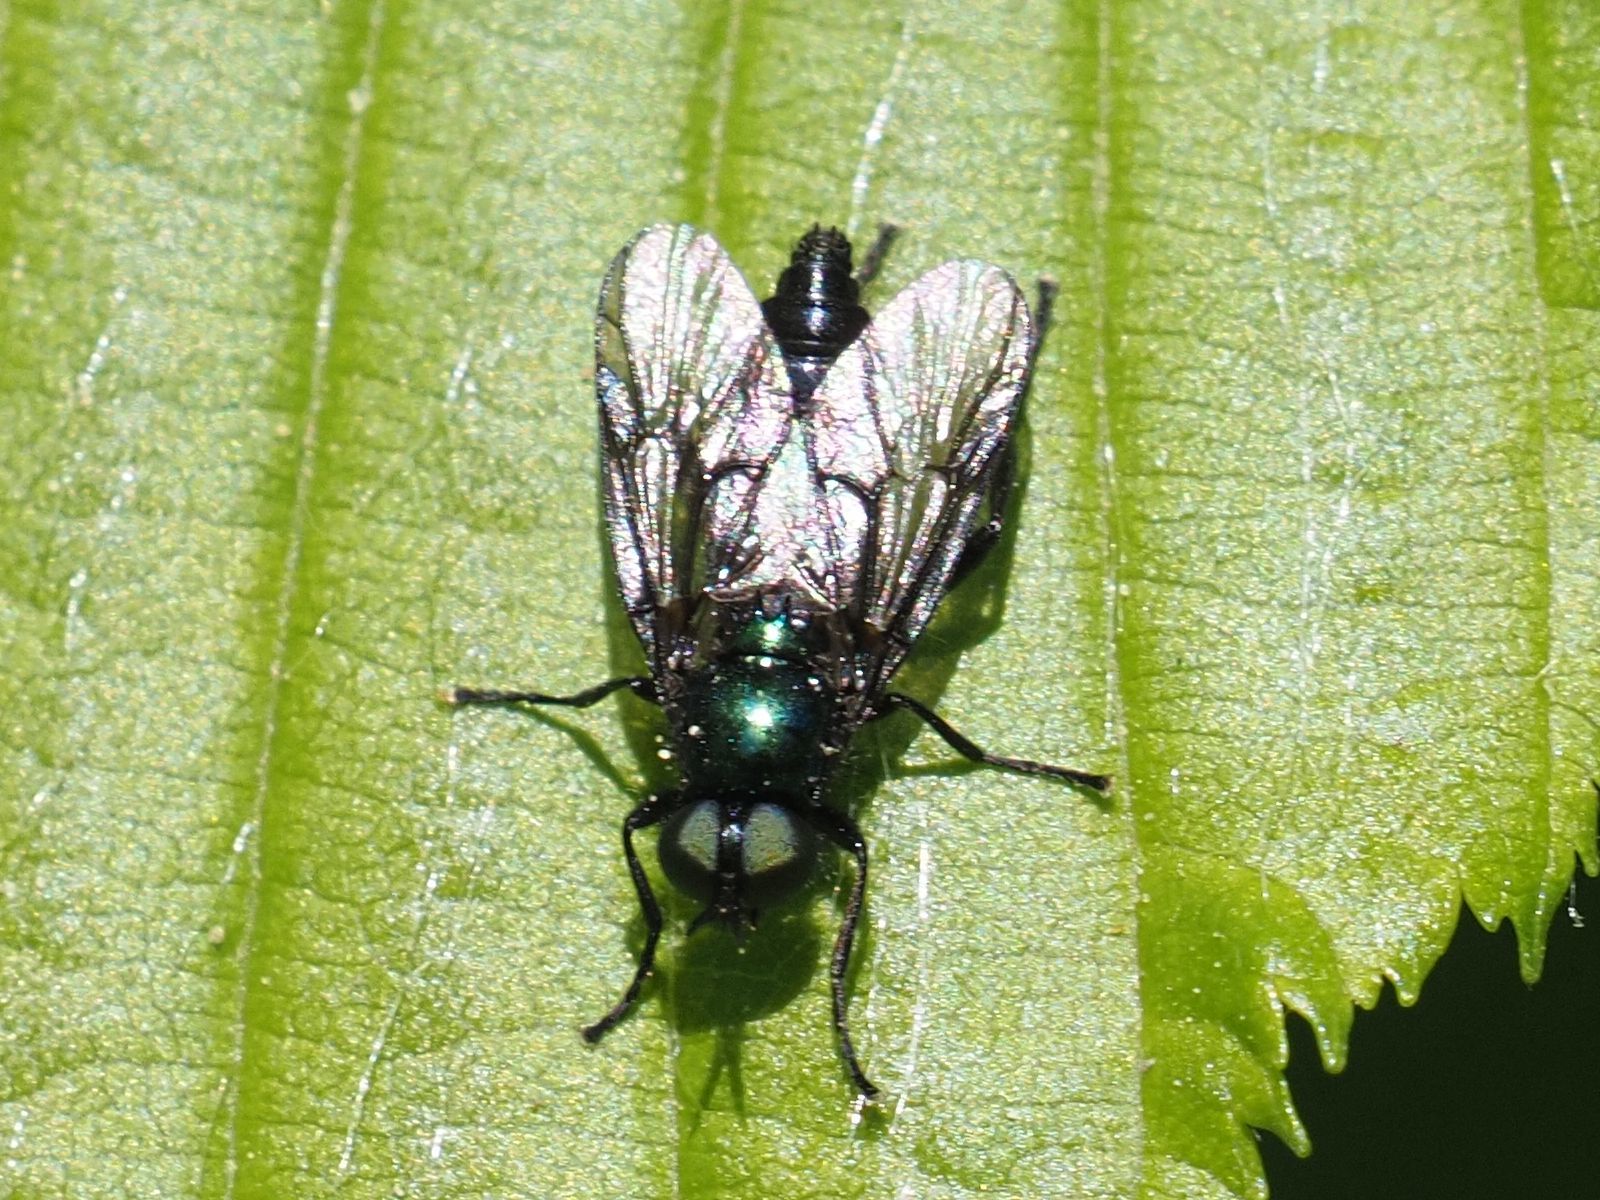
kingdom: Animalia
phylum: Arthropoda
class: Insecta
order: Diptera
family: Stratiomyidae
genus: Actina
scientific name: Actina chalybea
